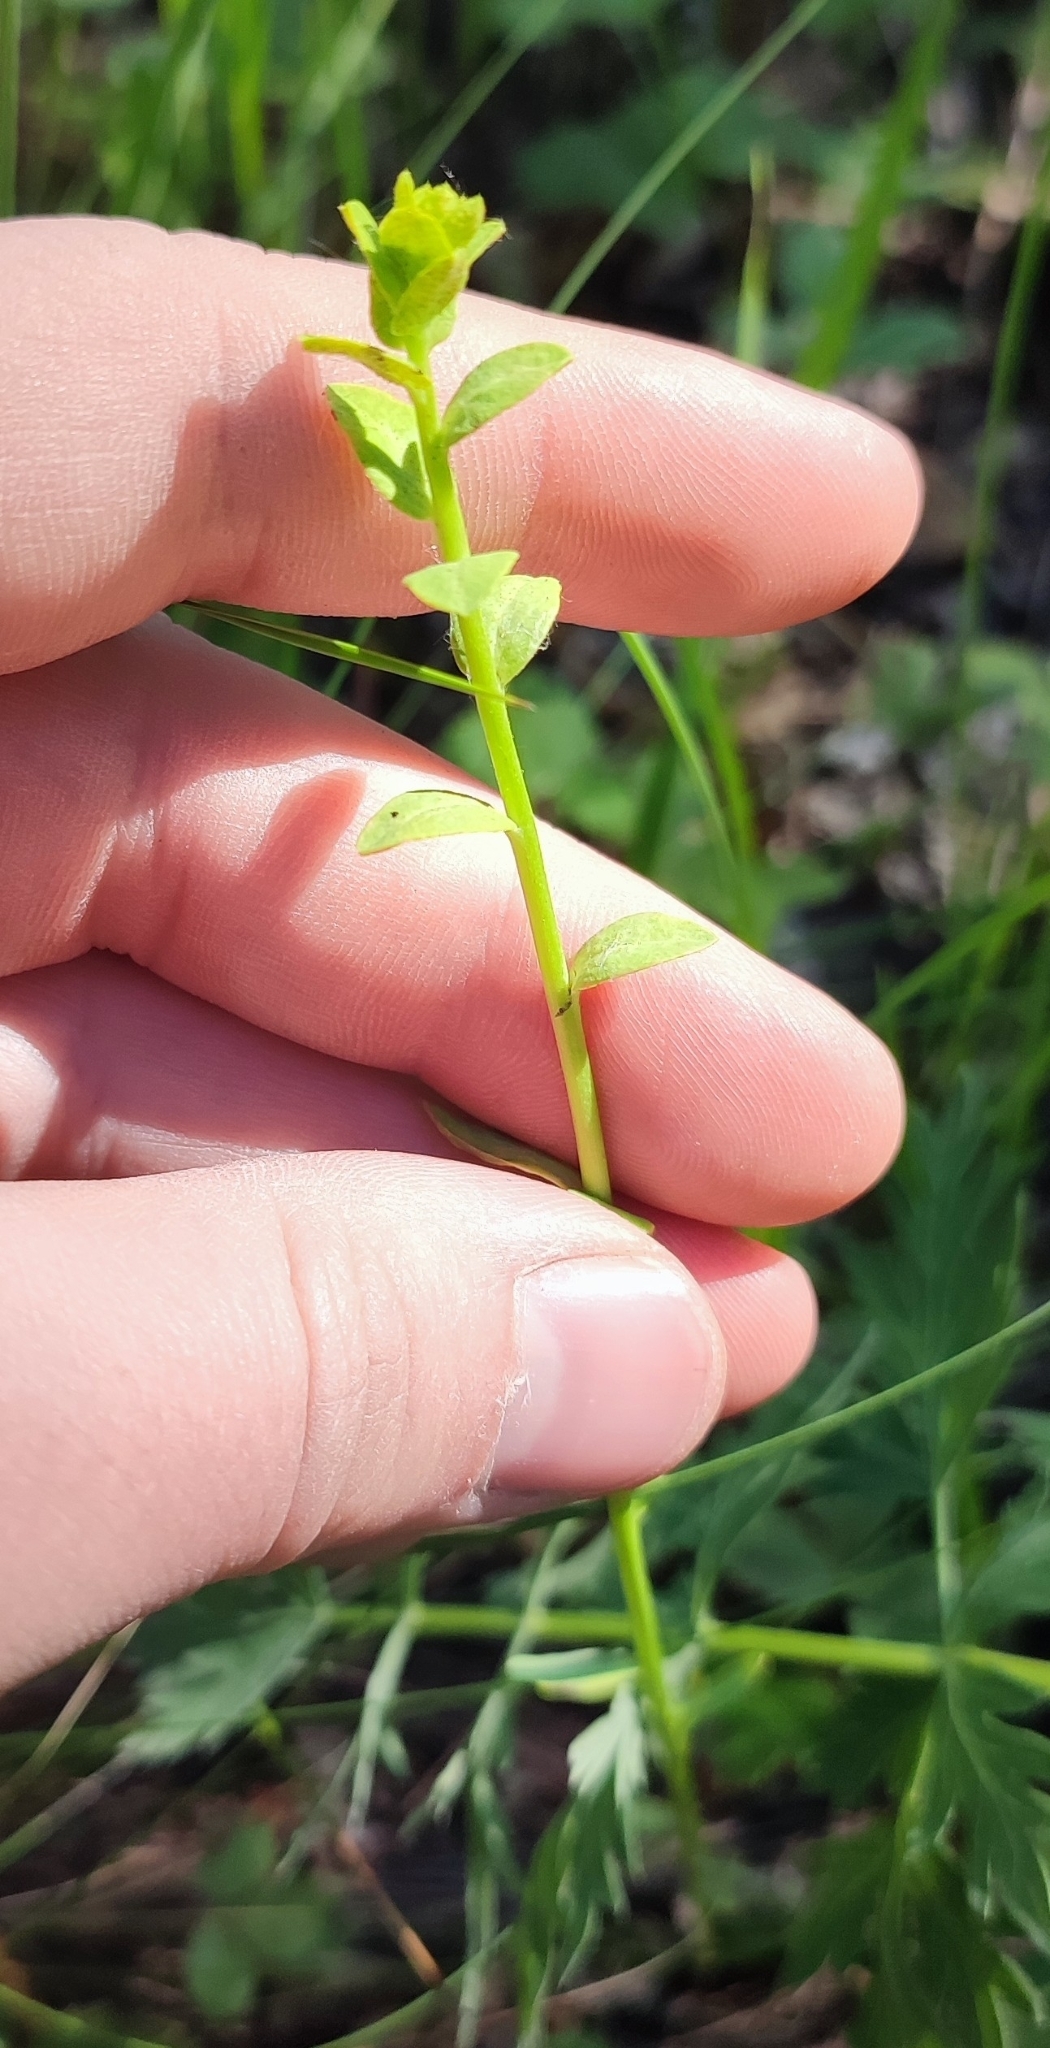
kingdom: Plantae
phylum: Tracheophyta
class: Magnoliopsida
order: Malpighiales
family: Euphorbiaceae
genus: Euphorbia
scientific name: Euphorbia virgata
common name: Leafy spurge
